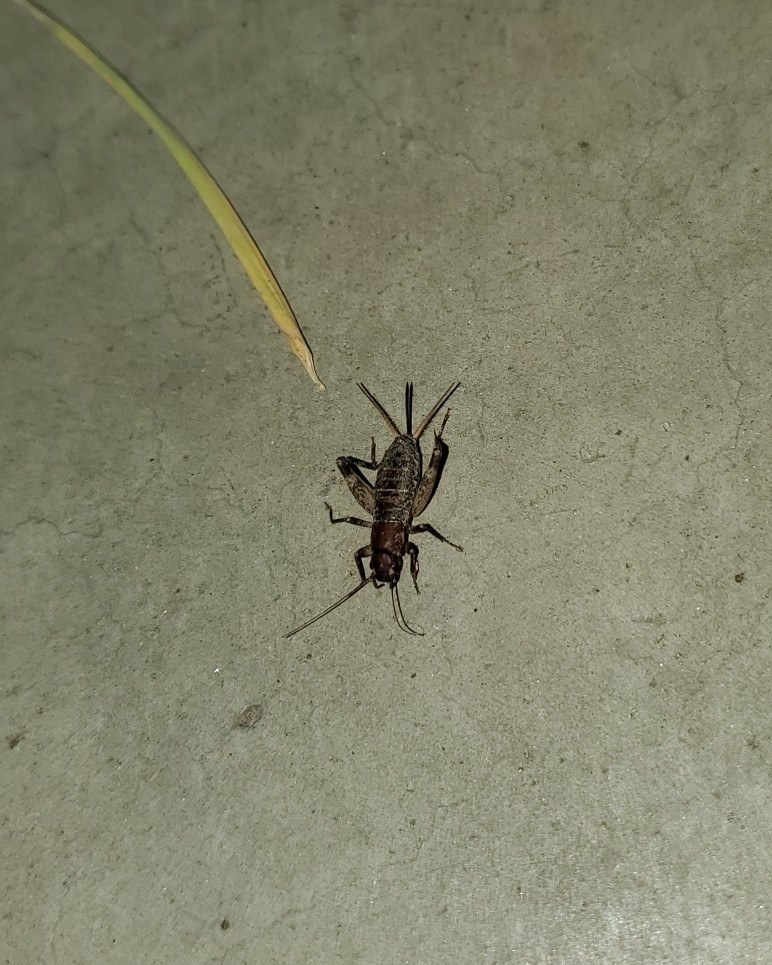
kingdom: Animalia
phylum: Arthropoda
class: Insecta
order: Orthoptera
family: Mogoplistidae
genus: Hoplosphyrum
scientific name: Hoplosphyrum boreale
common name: Long-winged scaly cricket
